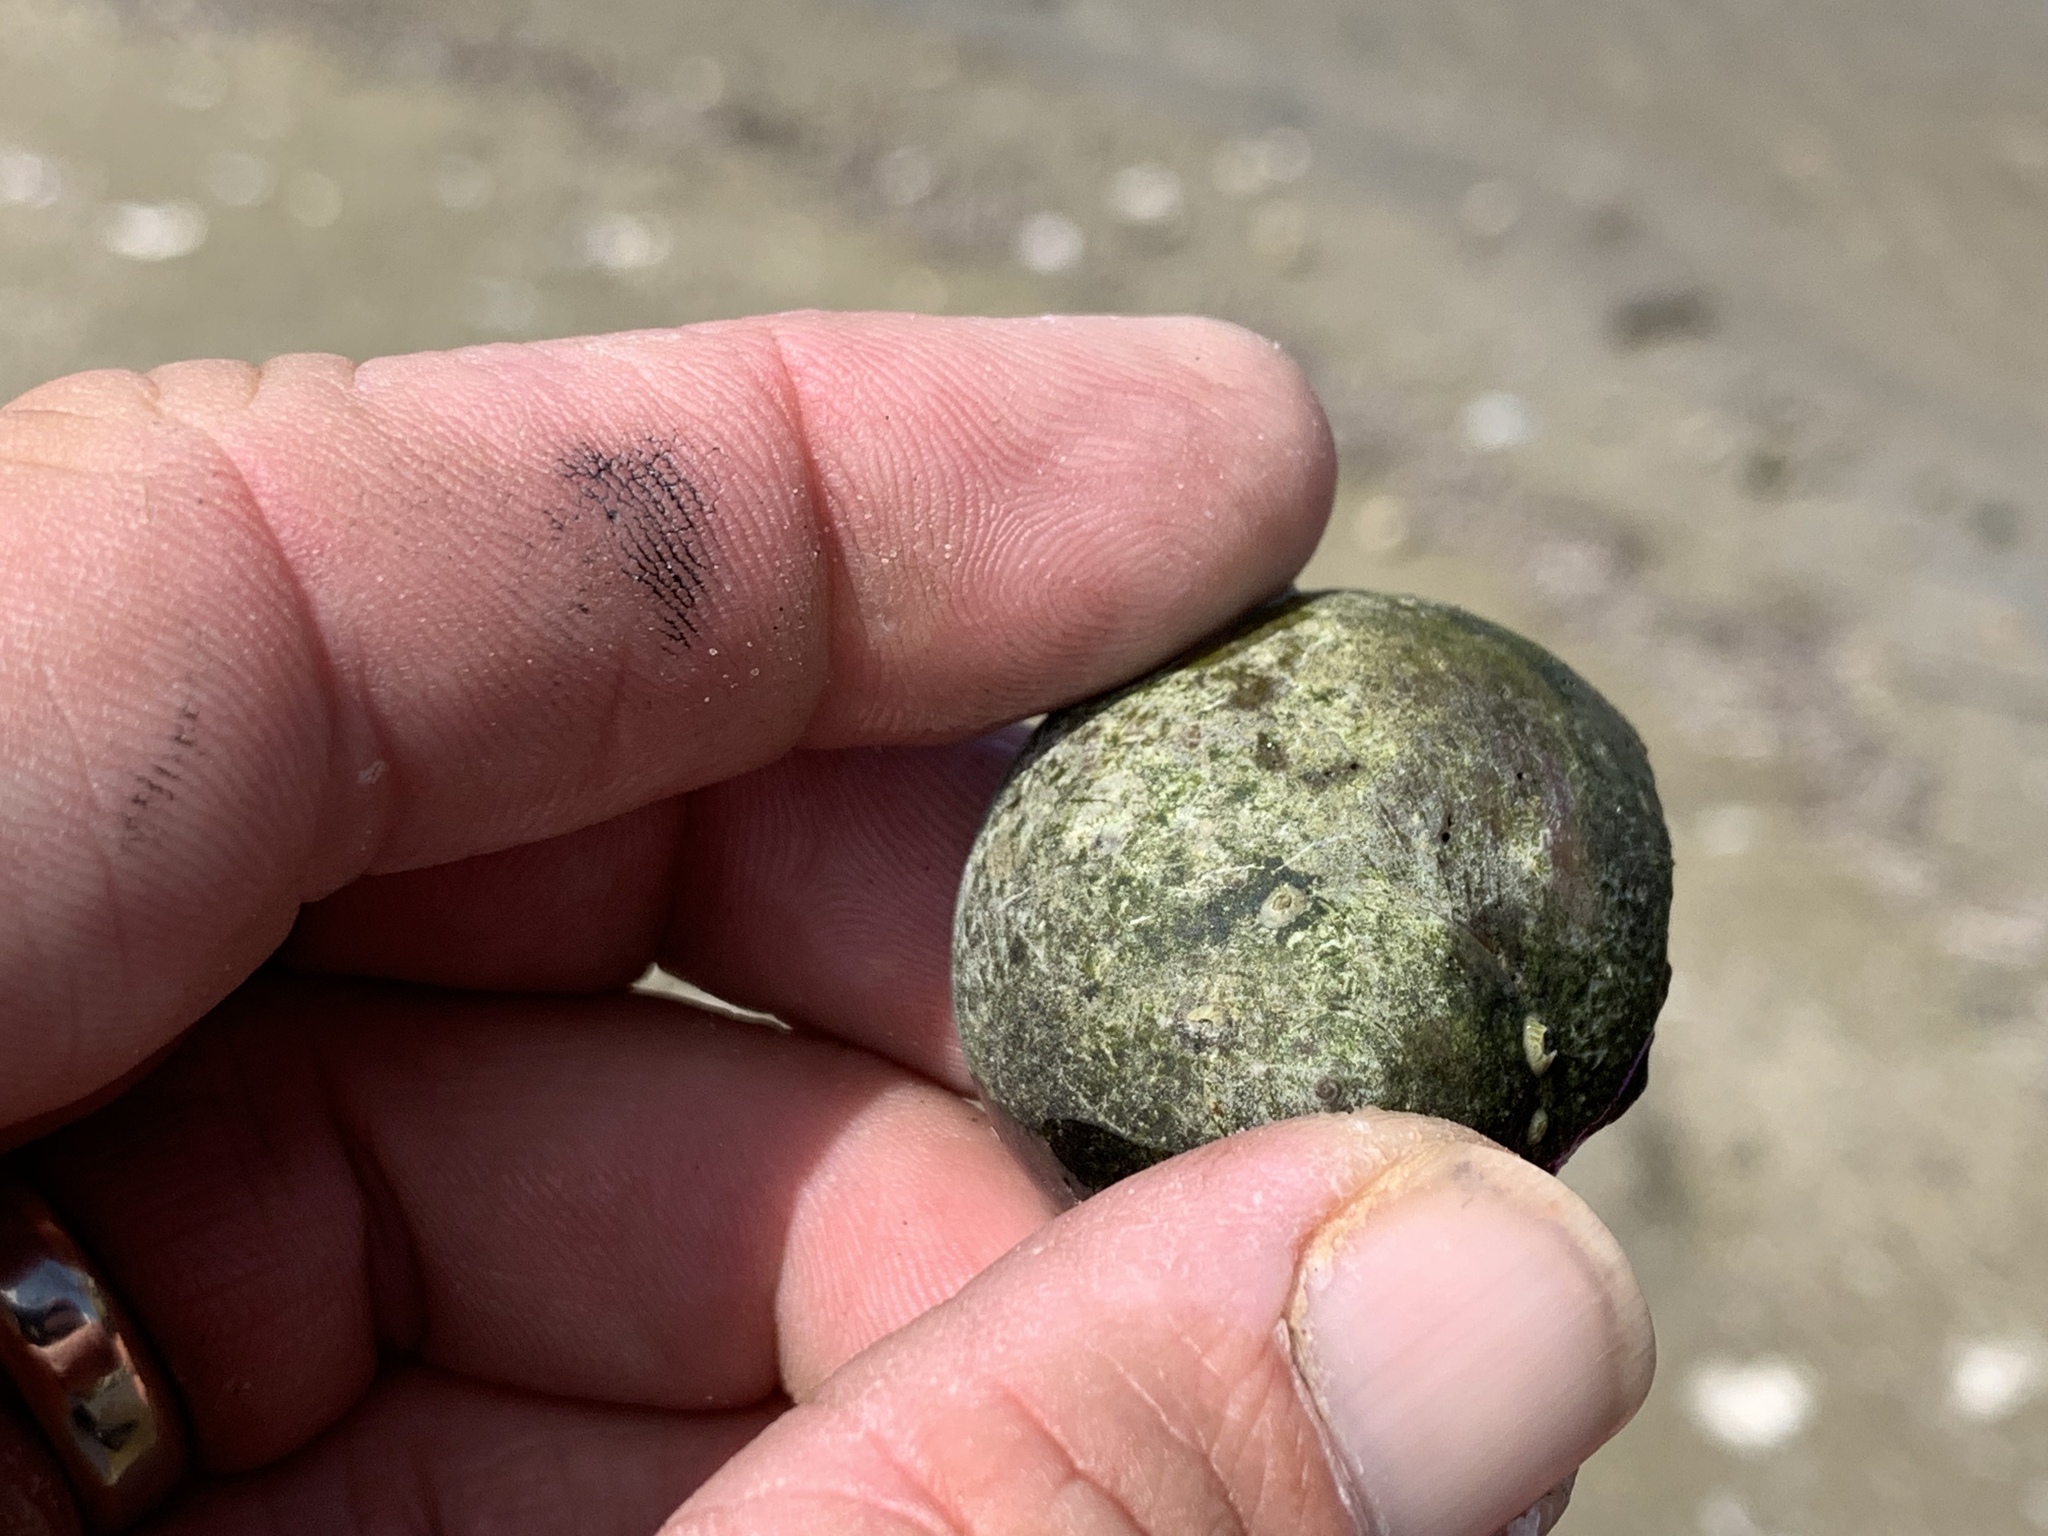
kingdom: Animalia
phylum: Mollusca
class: Gastropoda
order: Littorinimorpha
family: Naticidae
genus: Neverita
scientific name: Neverita delessertiana
